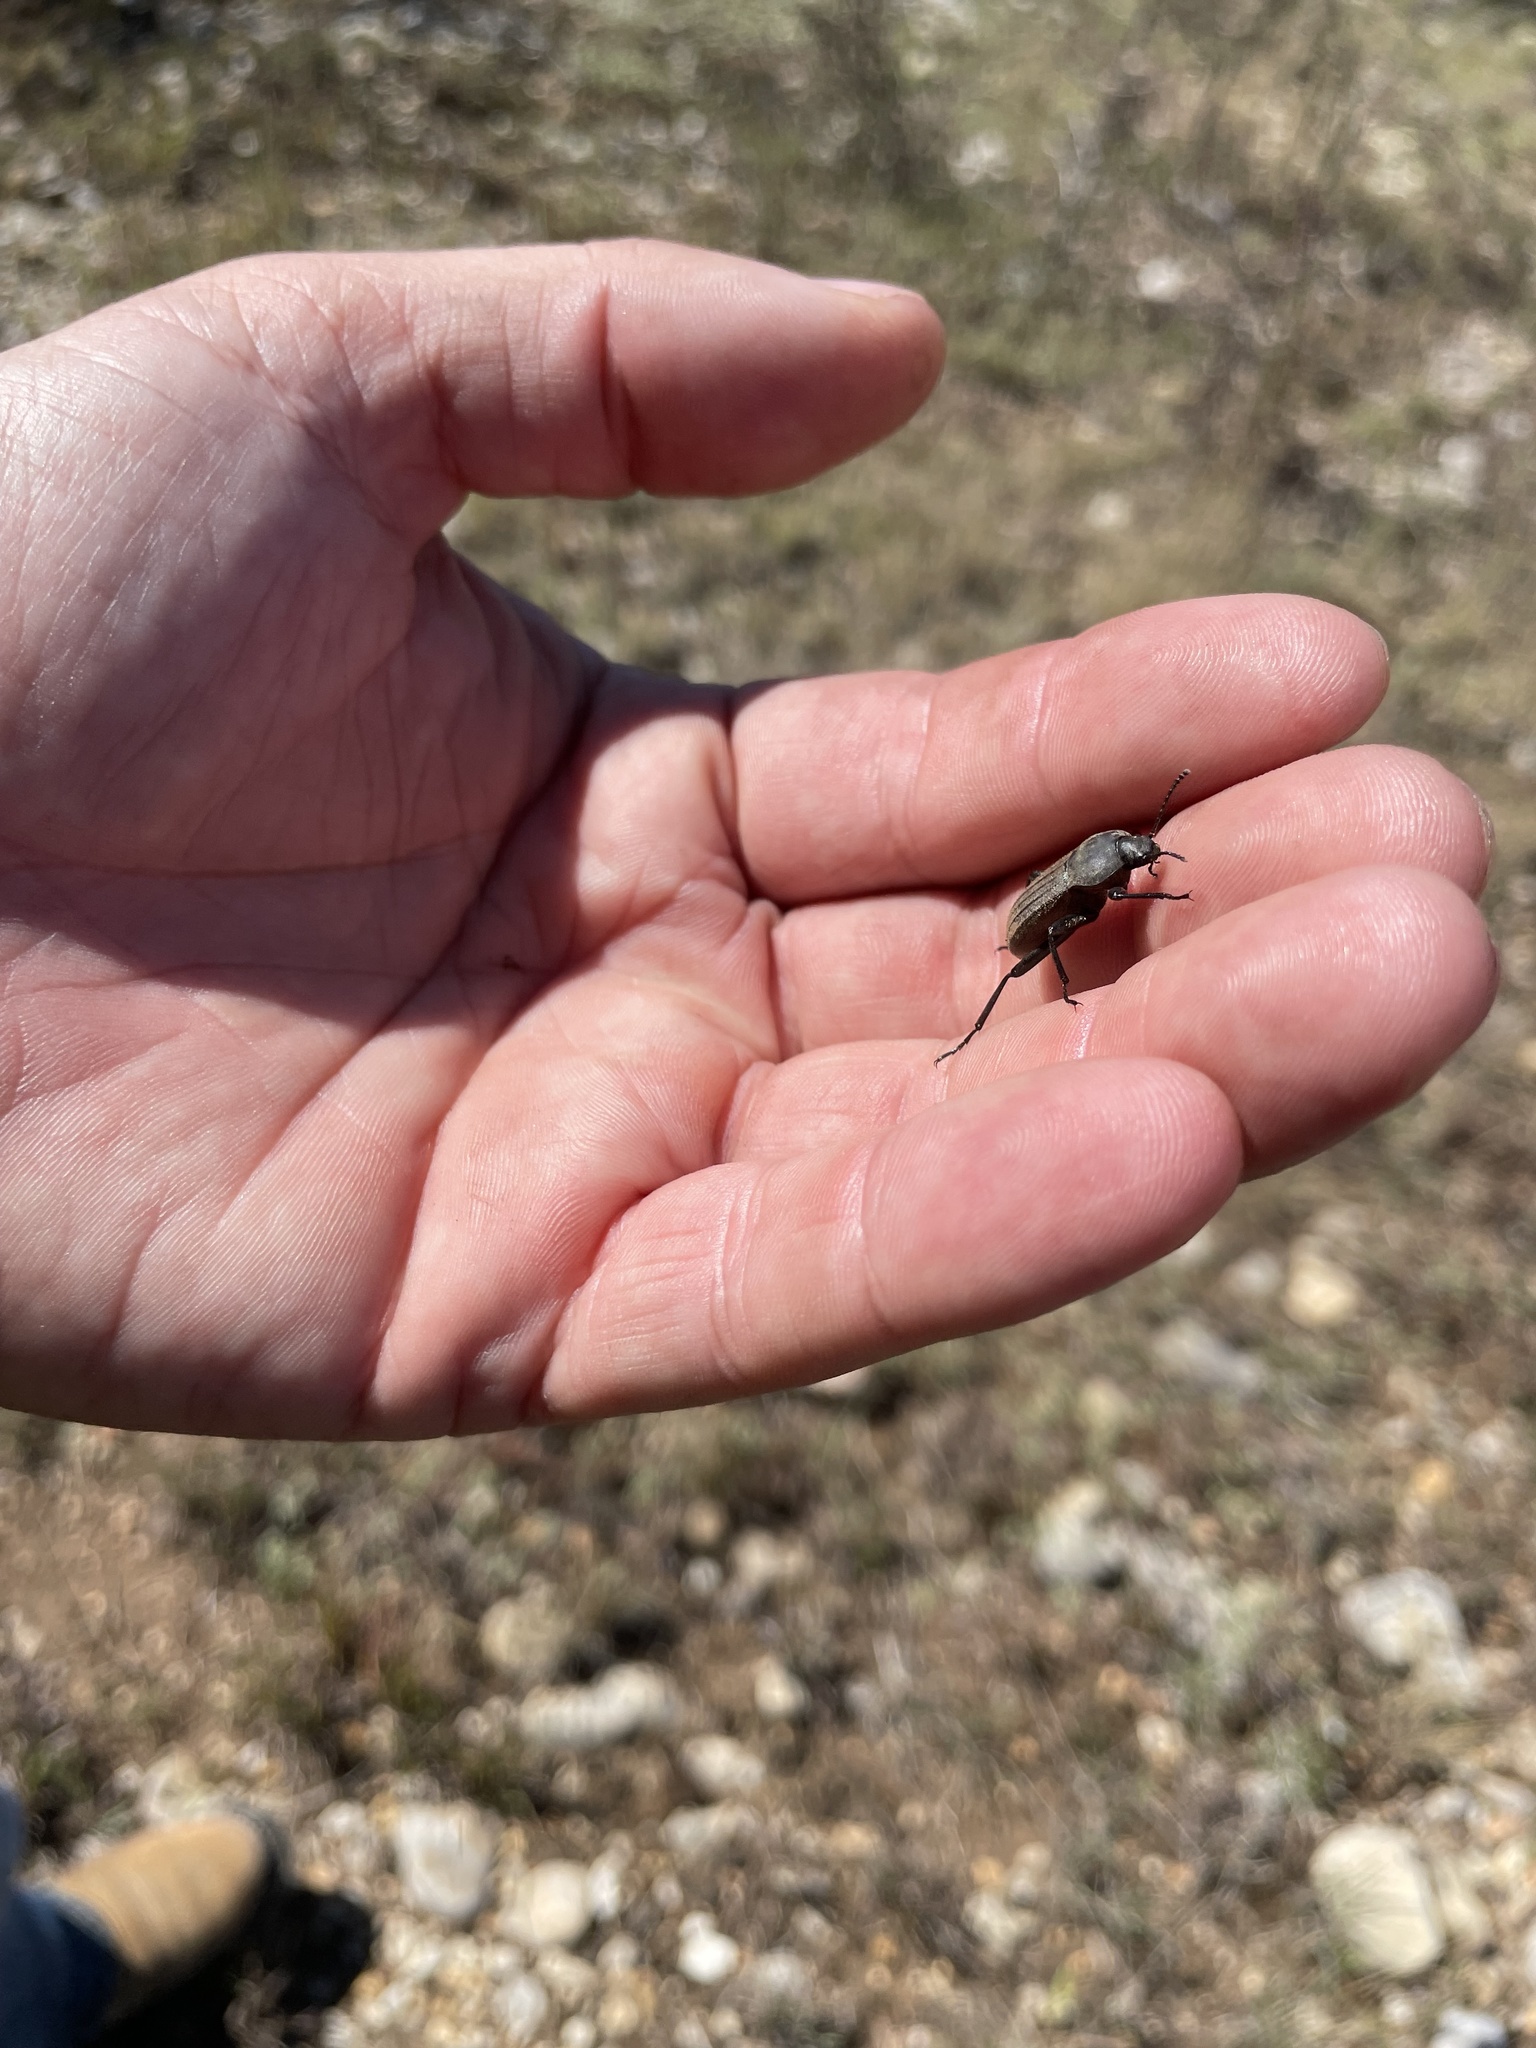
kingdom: Animalia
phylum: Arthropoda
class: Insecta
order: Coleoptera
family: Tenebrionidae
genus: Eleodes
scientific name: Eleodes tricostata
